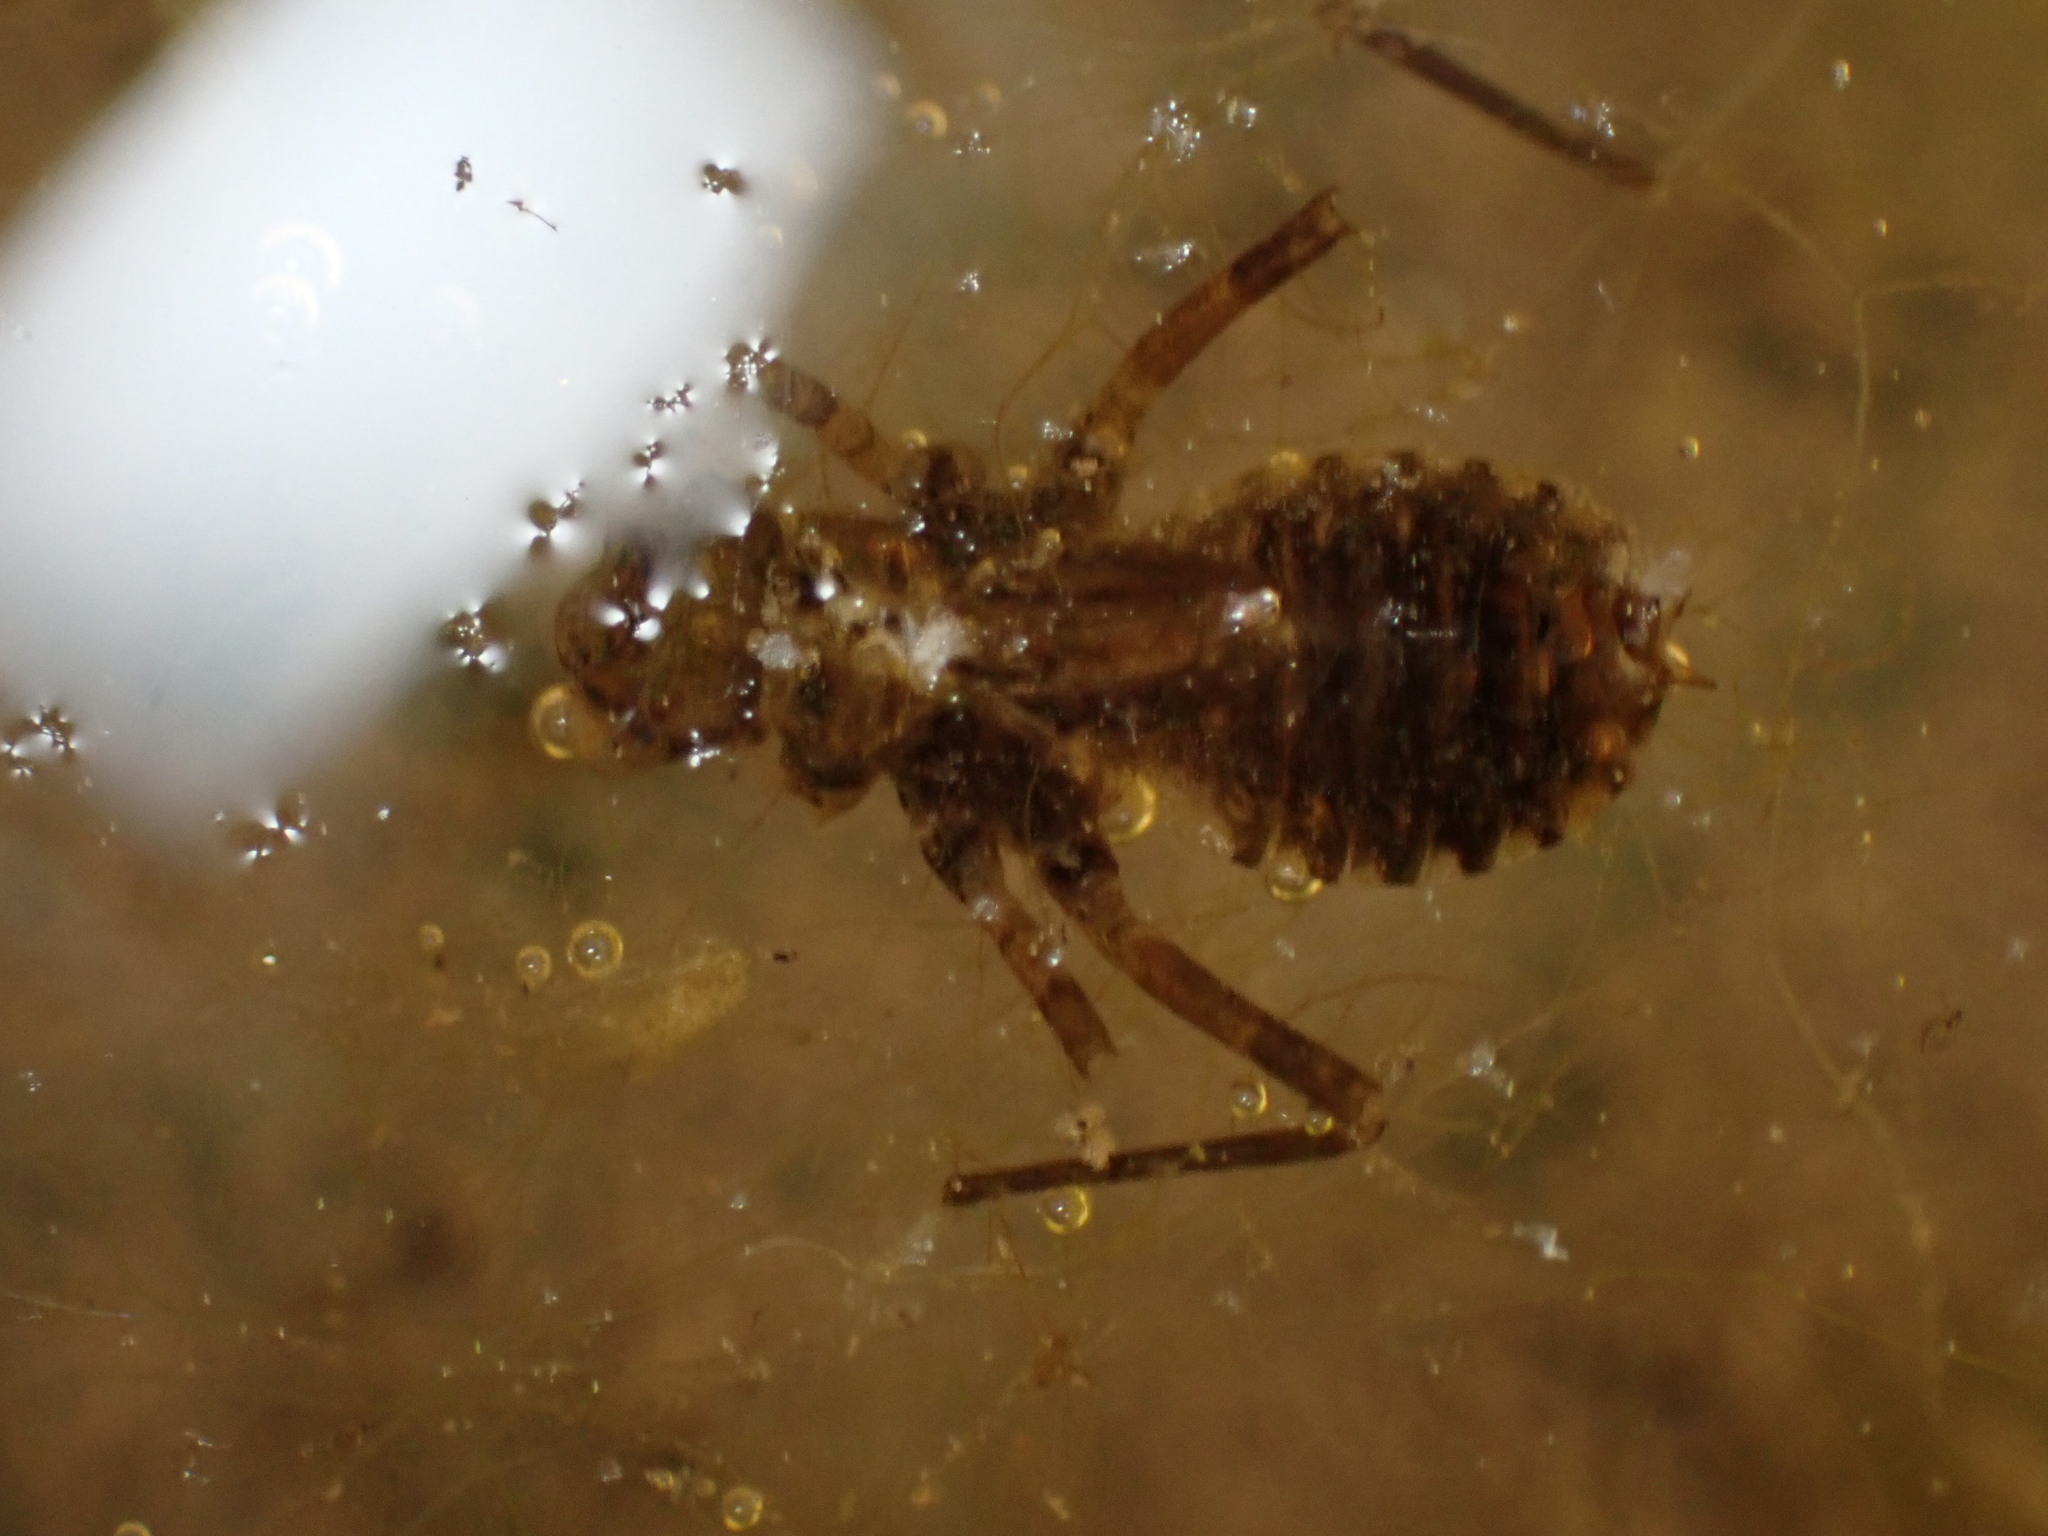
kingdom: Animalia
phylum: Arthropoda
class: Insecta
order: Odonata
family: Libellulidae
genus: Erythemis
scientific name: Erythemis simplicicollis
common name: Eastern pondhawk
